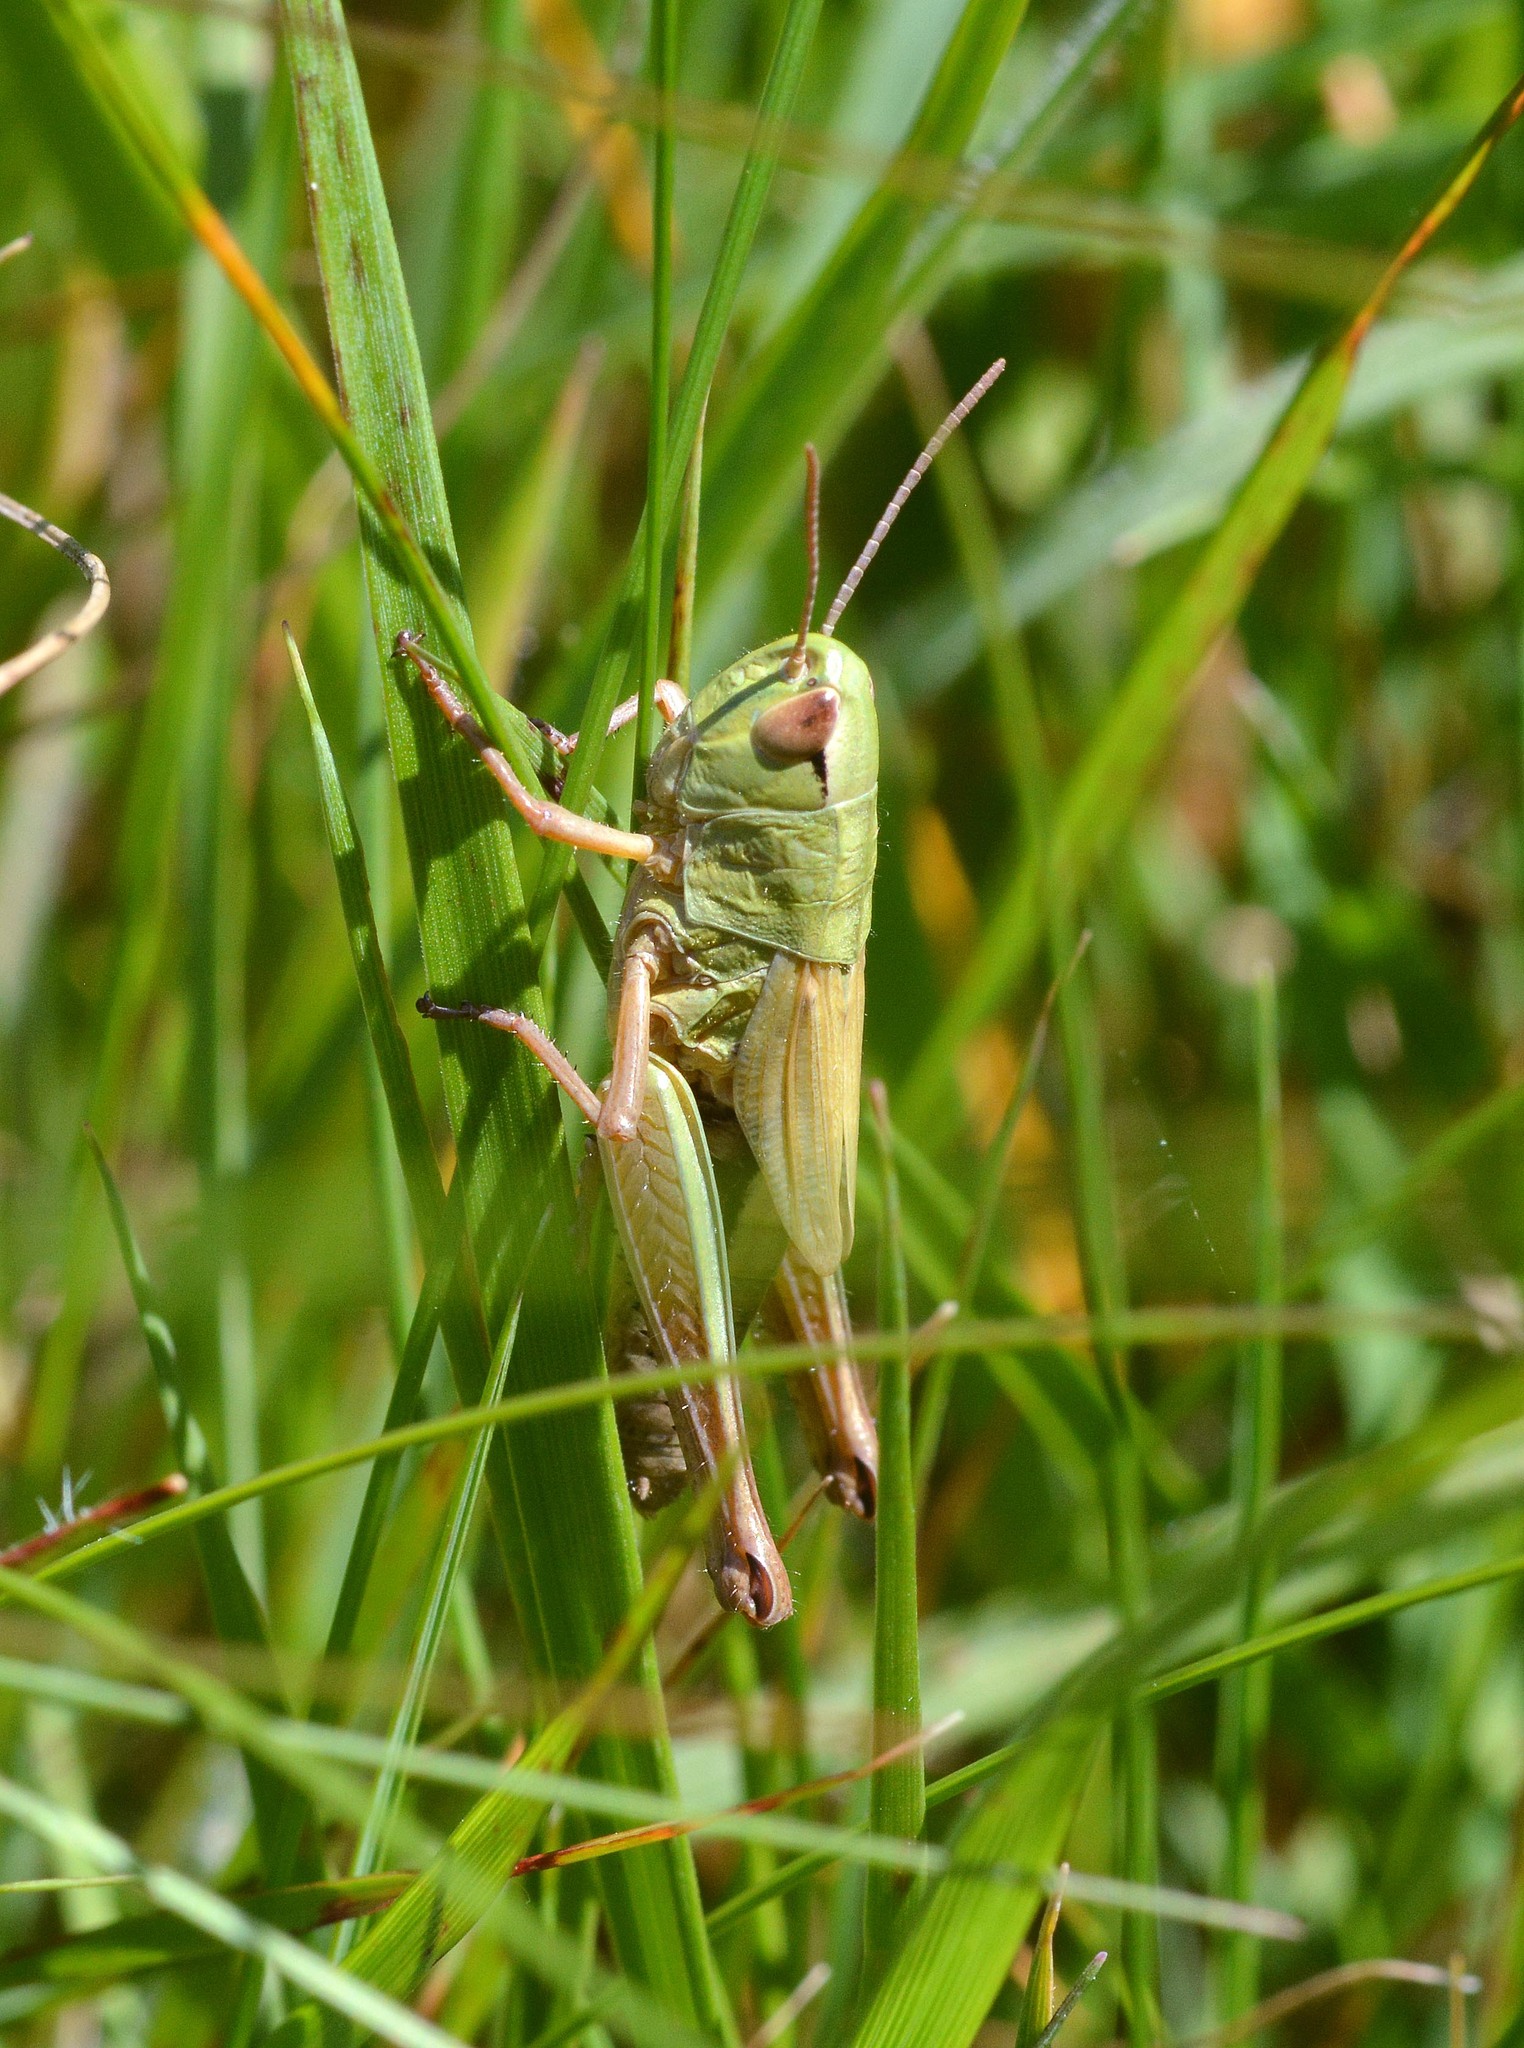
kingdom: Animalia
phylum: Arthropoda
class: Insecta
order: Orthoptera
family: Acrididae
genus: Pseudochorthippus
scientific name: Pseudochorthippus parallelus
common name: Meadow grasshopper
